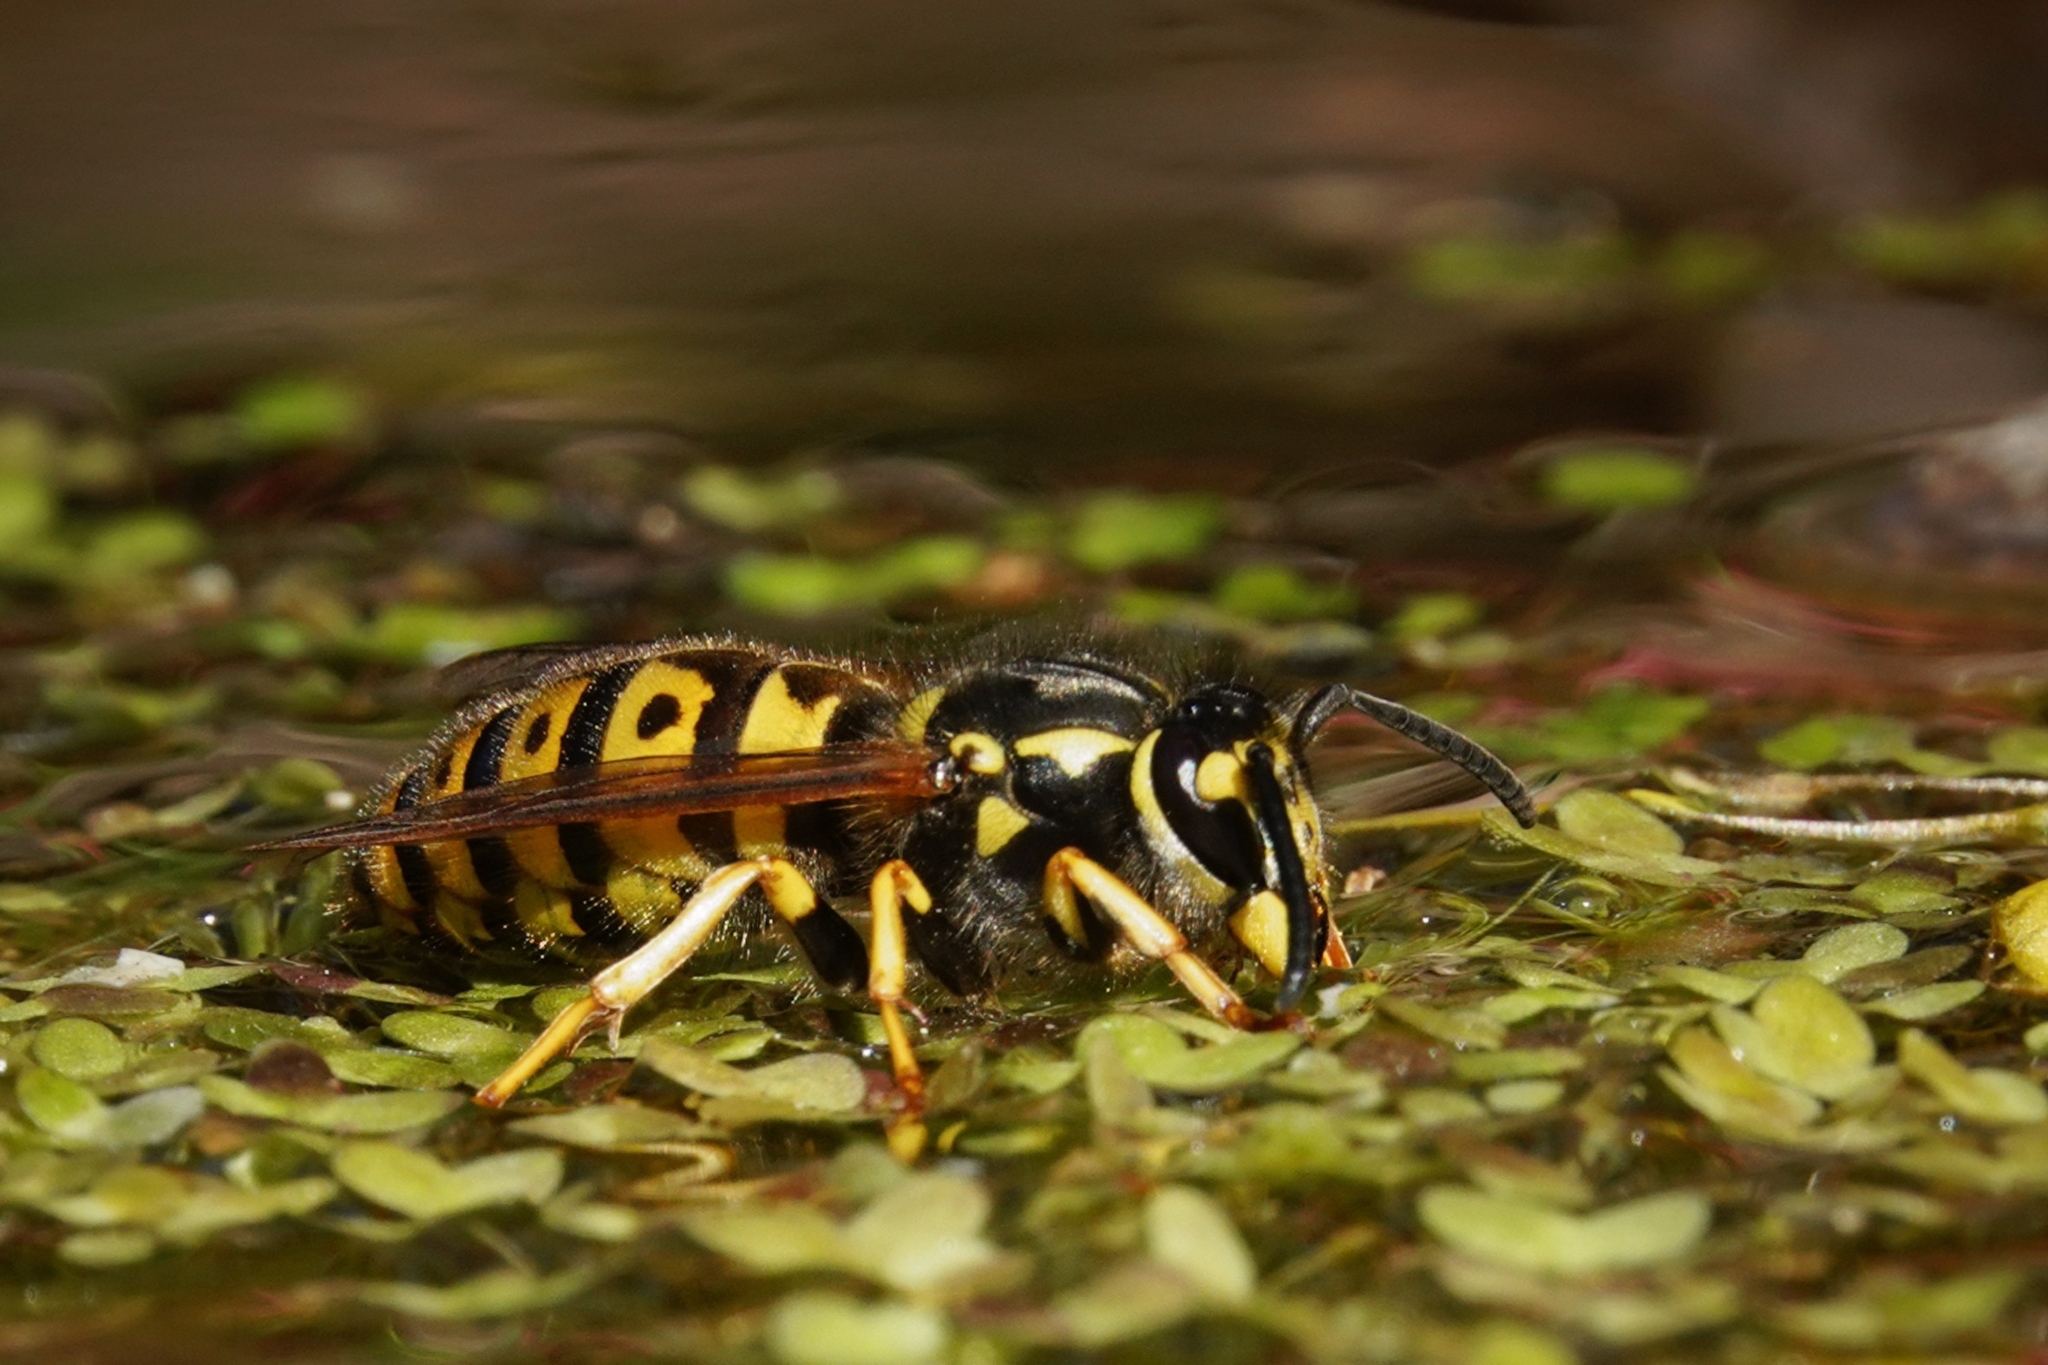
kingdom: Animalia
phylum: Arthropoda
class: Insecta
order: Hymenoptera
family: Vespidae
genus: Vespula
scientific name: Vespula germanica
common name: German wasp
